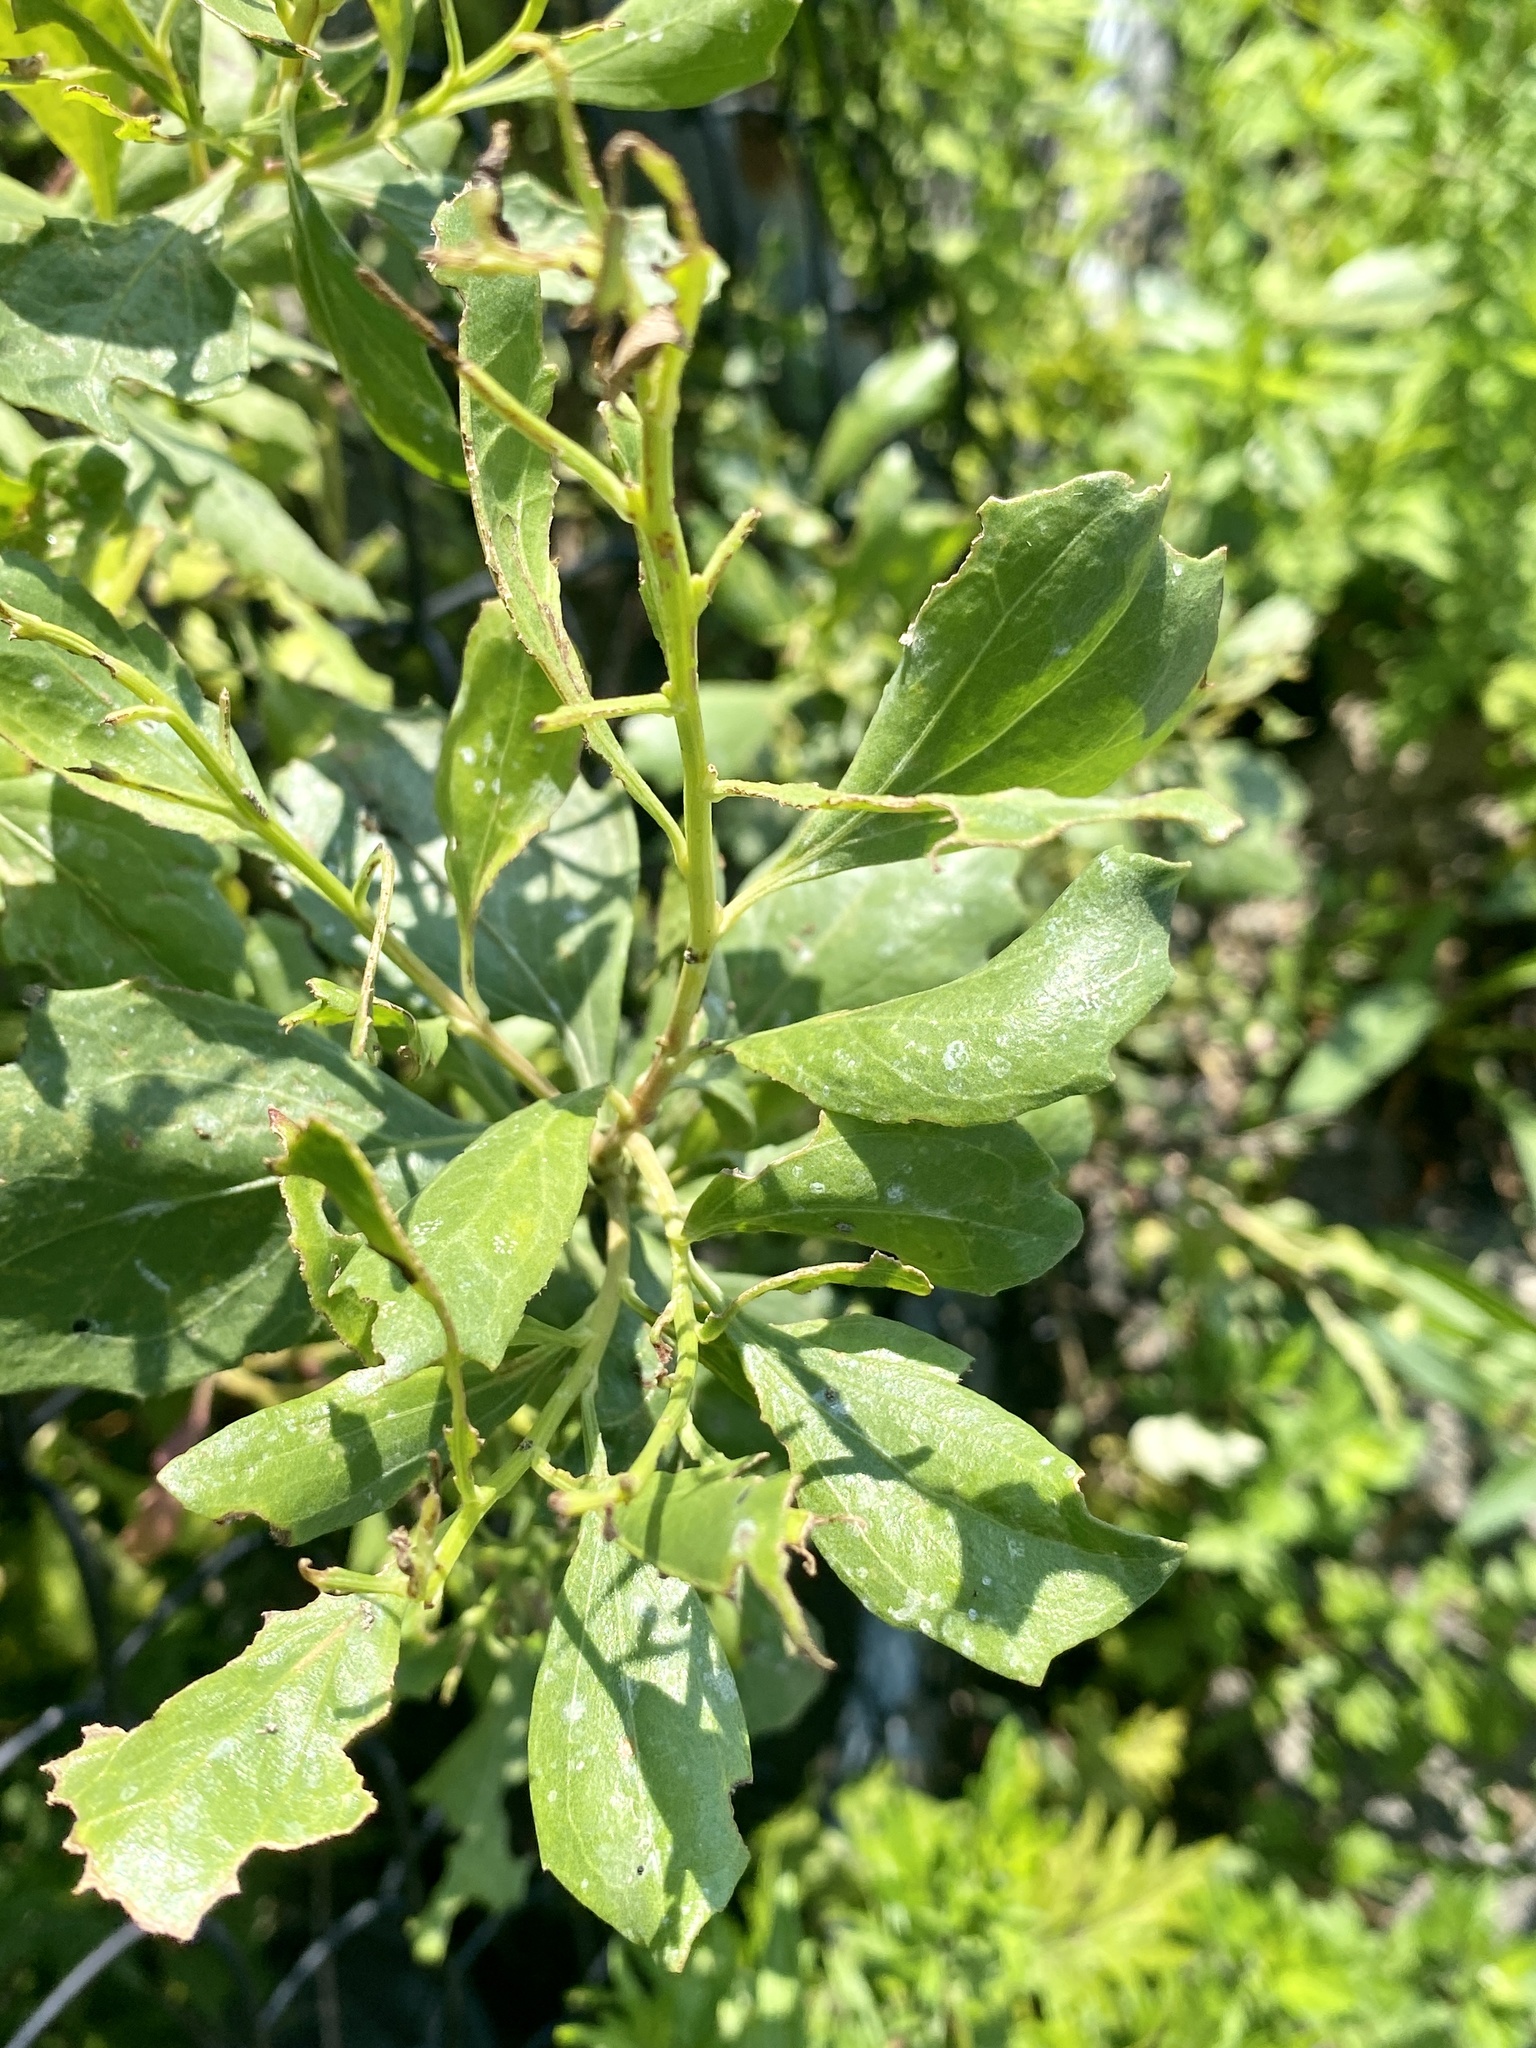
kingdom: Plantae
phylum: Tracheophyta
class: Magnoliopsida
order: Asterales
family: Asteraceae
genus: Baccharis
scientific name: Baccharis halimifolia
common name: Eastern baccharis
